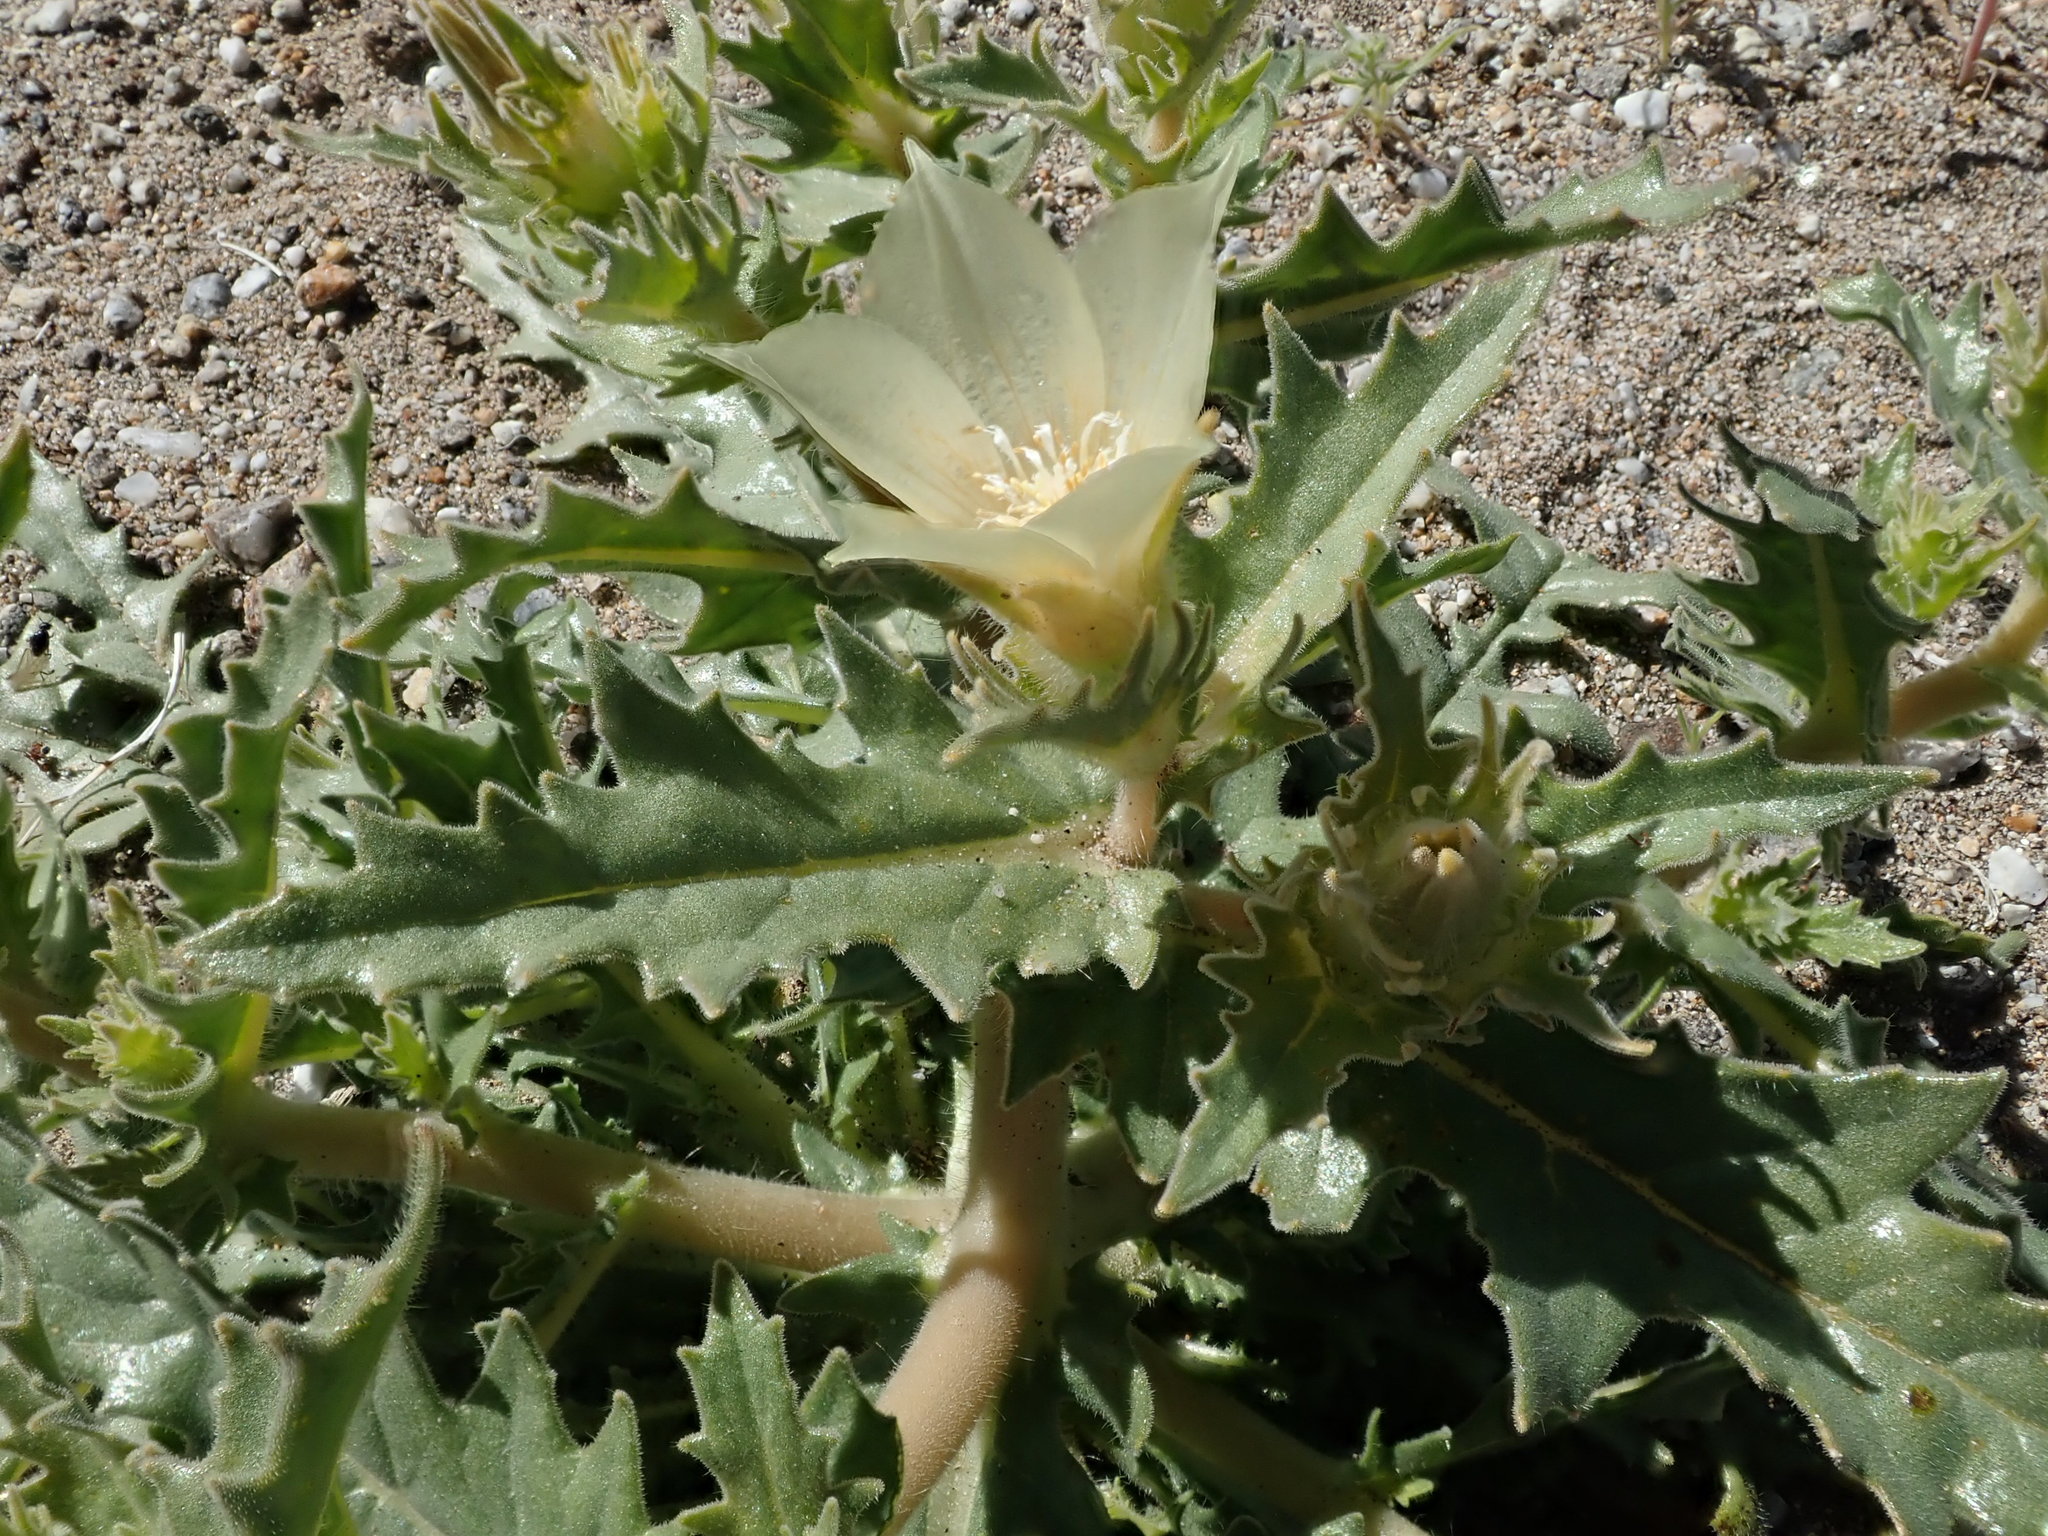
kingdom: Plantae
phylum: Tracheophyta
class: Magnoliopsida
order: Cornales
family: Loasaceae
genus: Mentzelia
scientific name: Mentzelia involucrata
